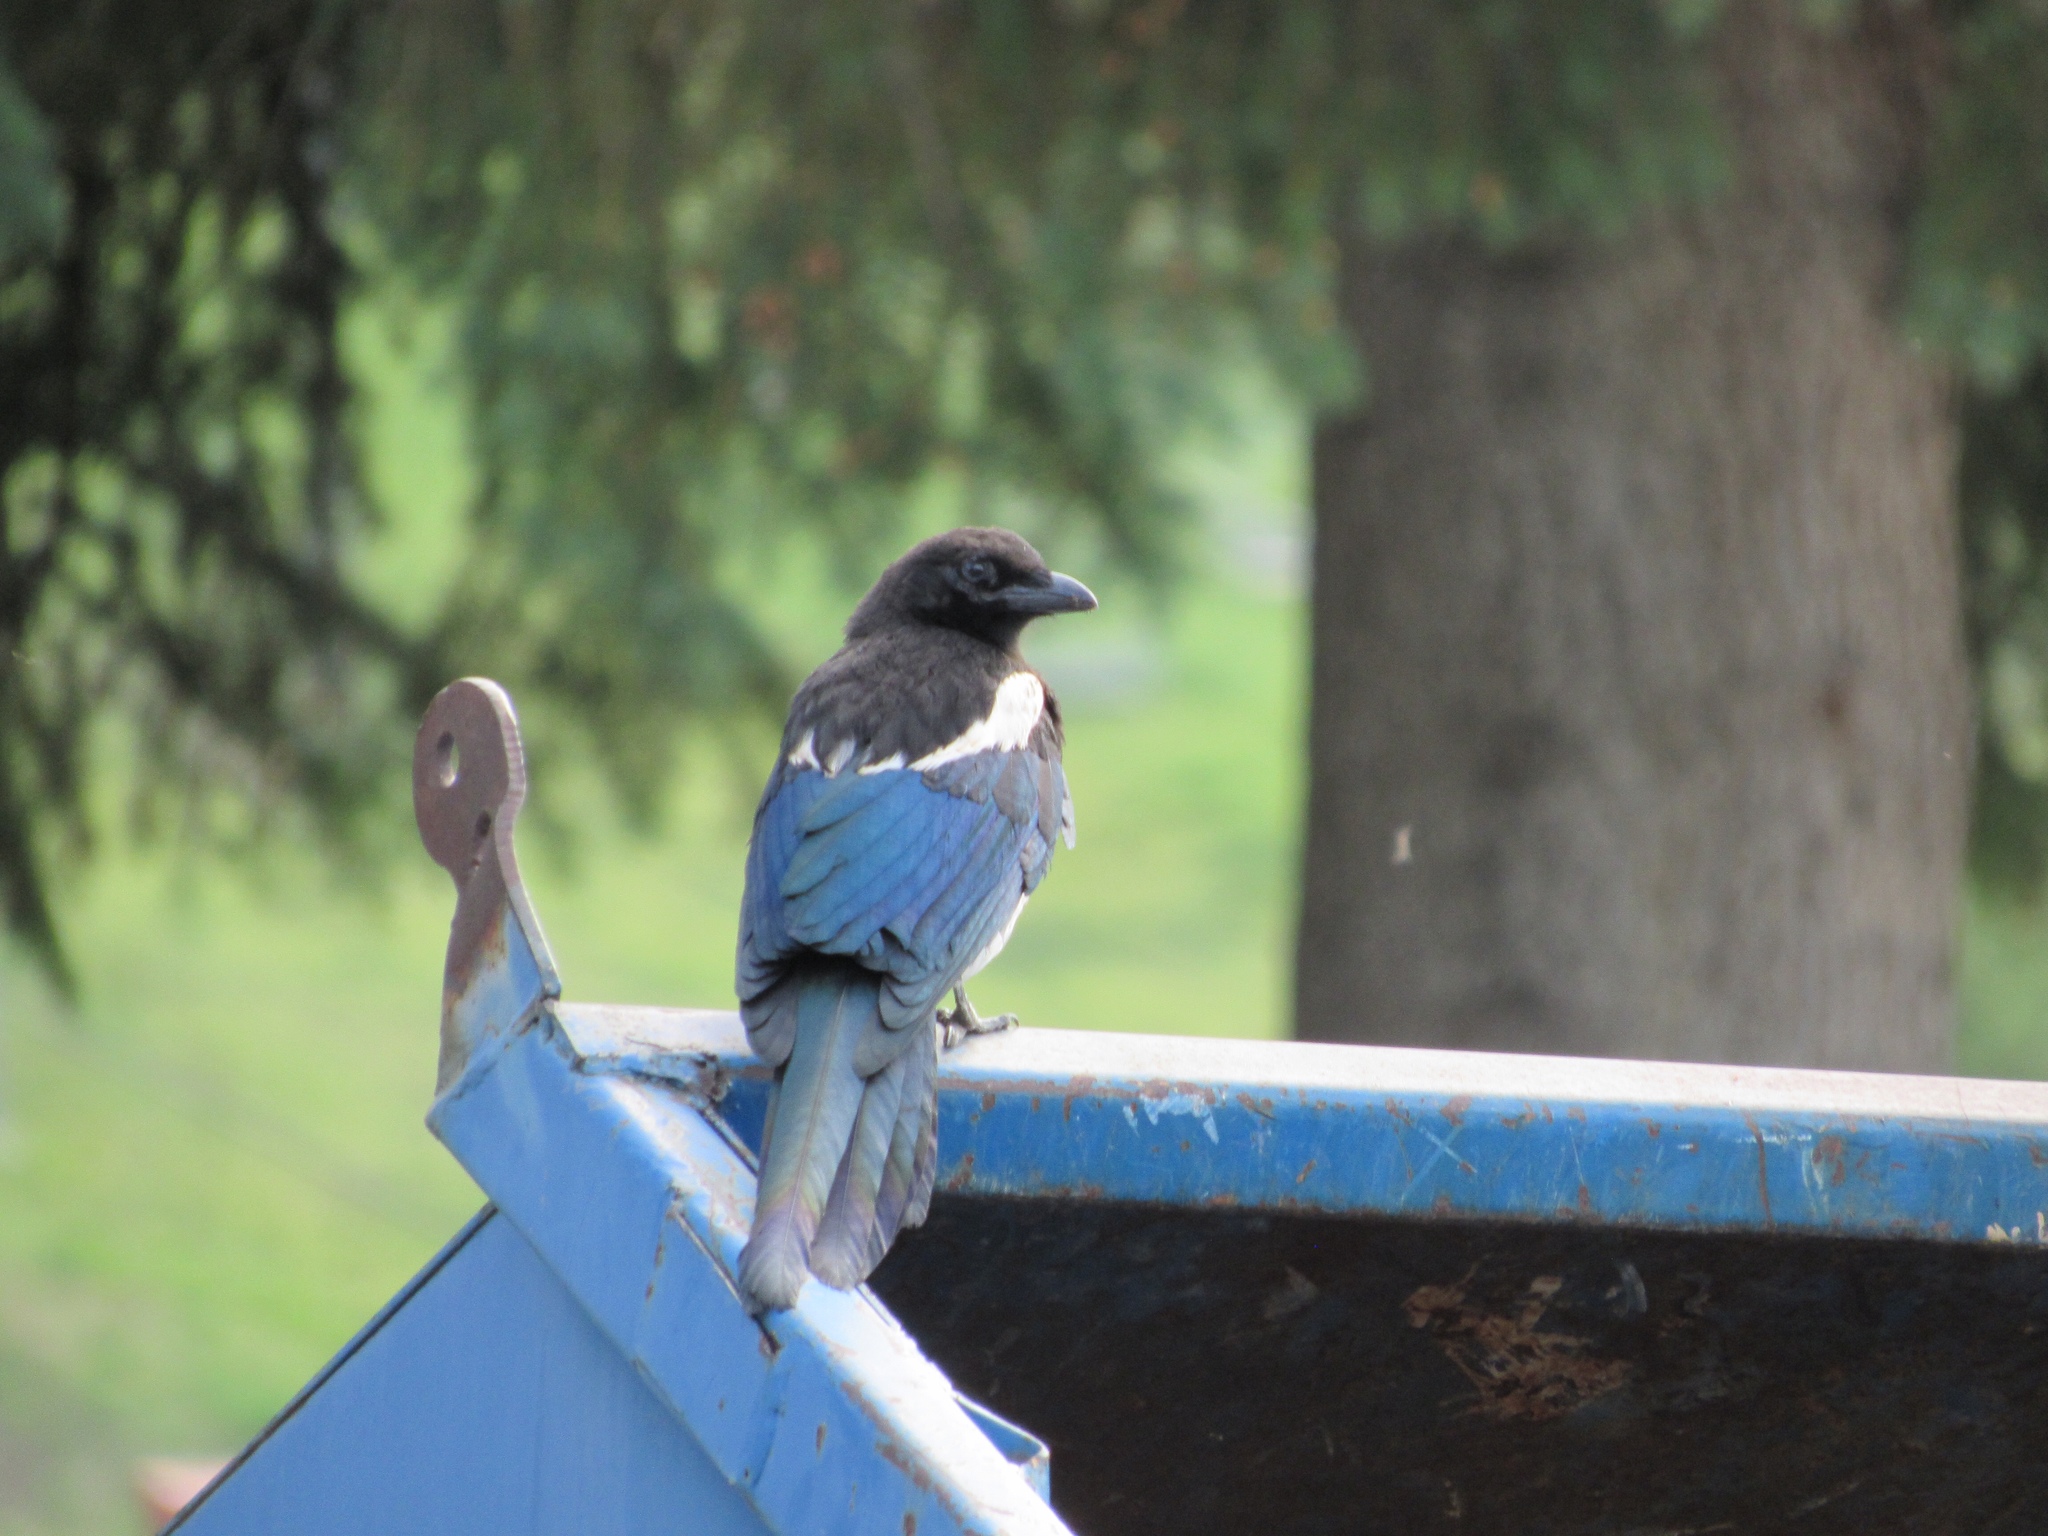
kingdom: Animalia
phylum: Chordata
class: Aves
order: Passeriformes
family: Corvidae
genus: Pica
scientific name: Pica hudsonia
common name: Black-billed magpie
